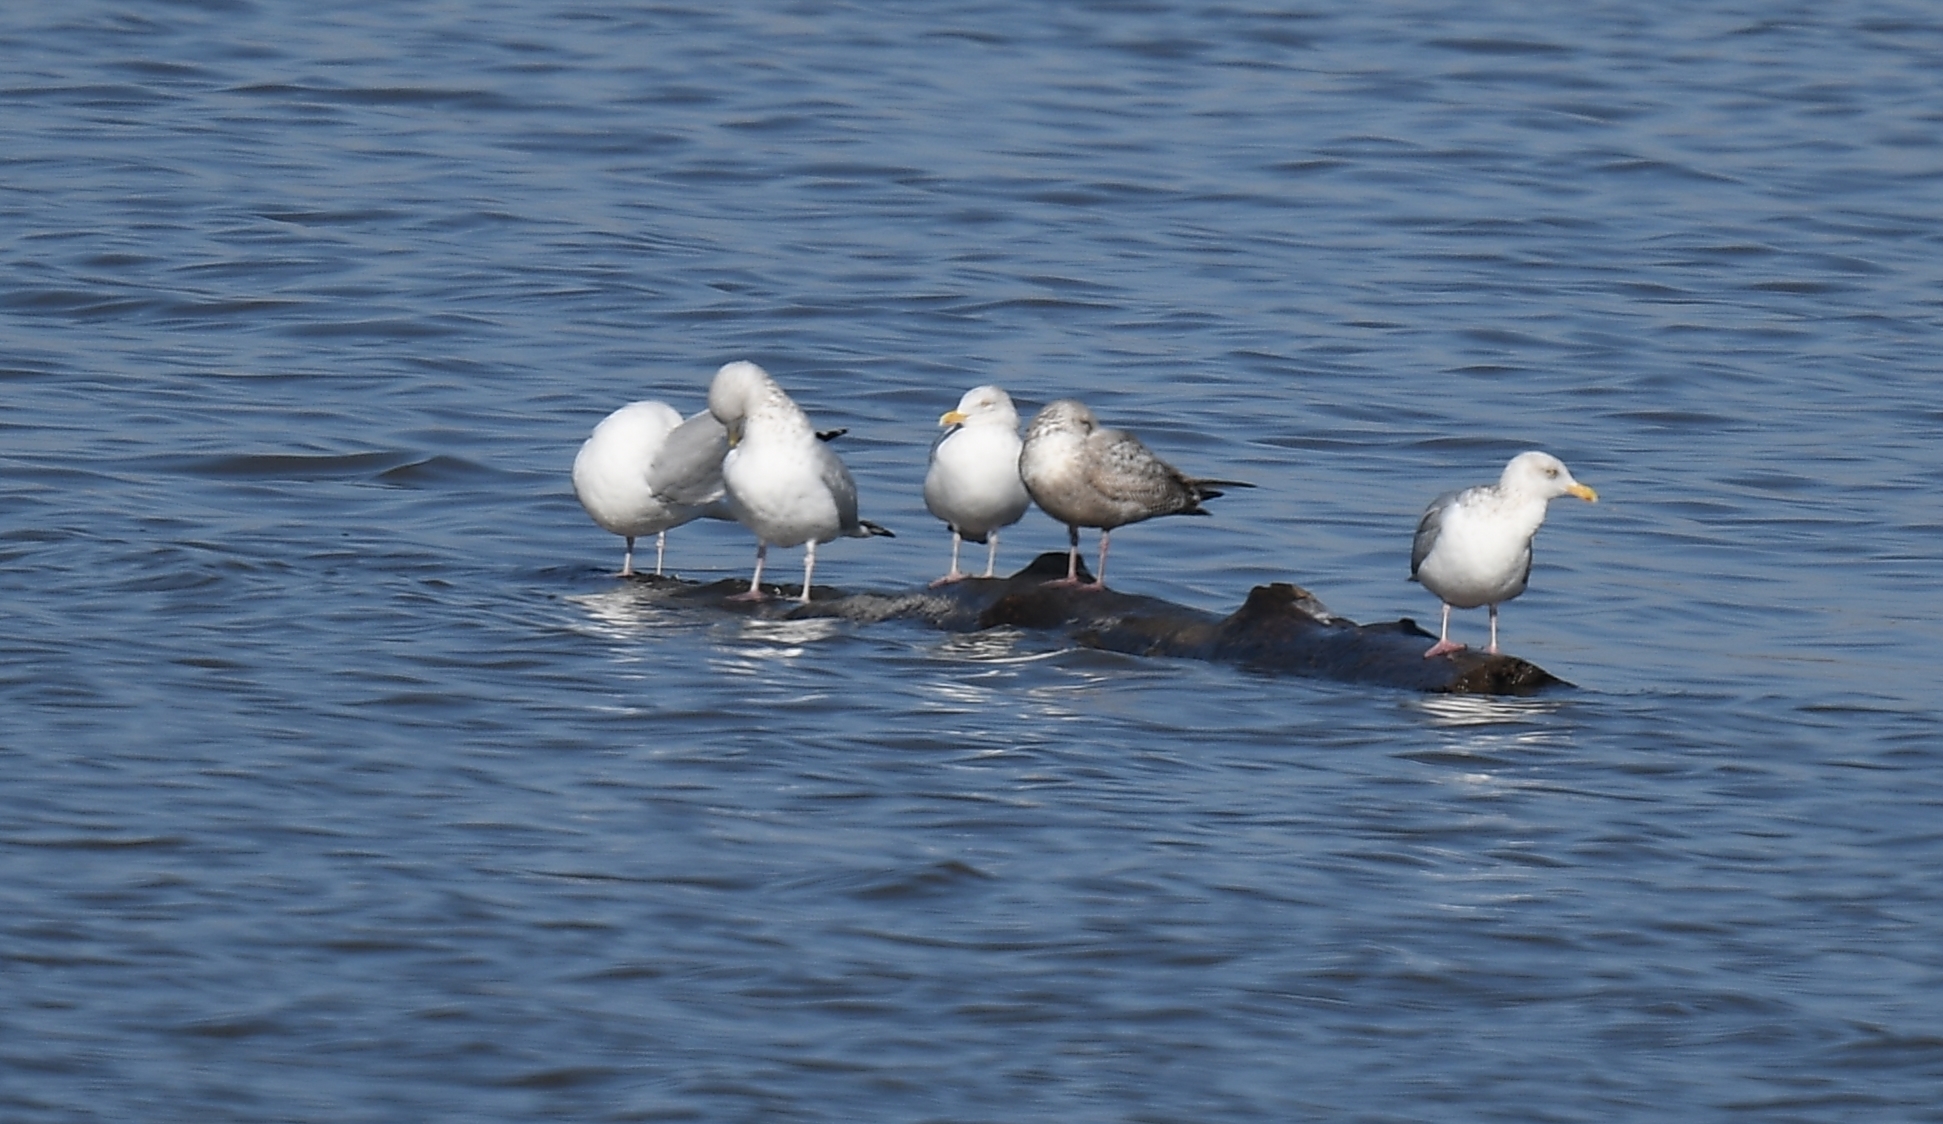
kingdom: Animalia
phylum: Chordata
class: Aves
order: Charadriiformes
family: Laridae
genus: Larus
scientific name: Larus argentatus
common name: Herring gull
